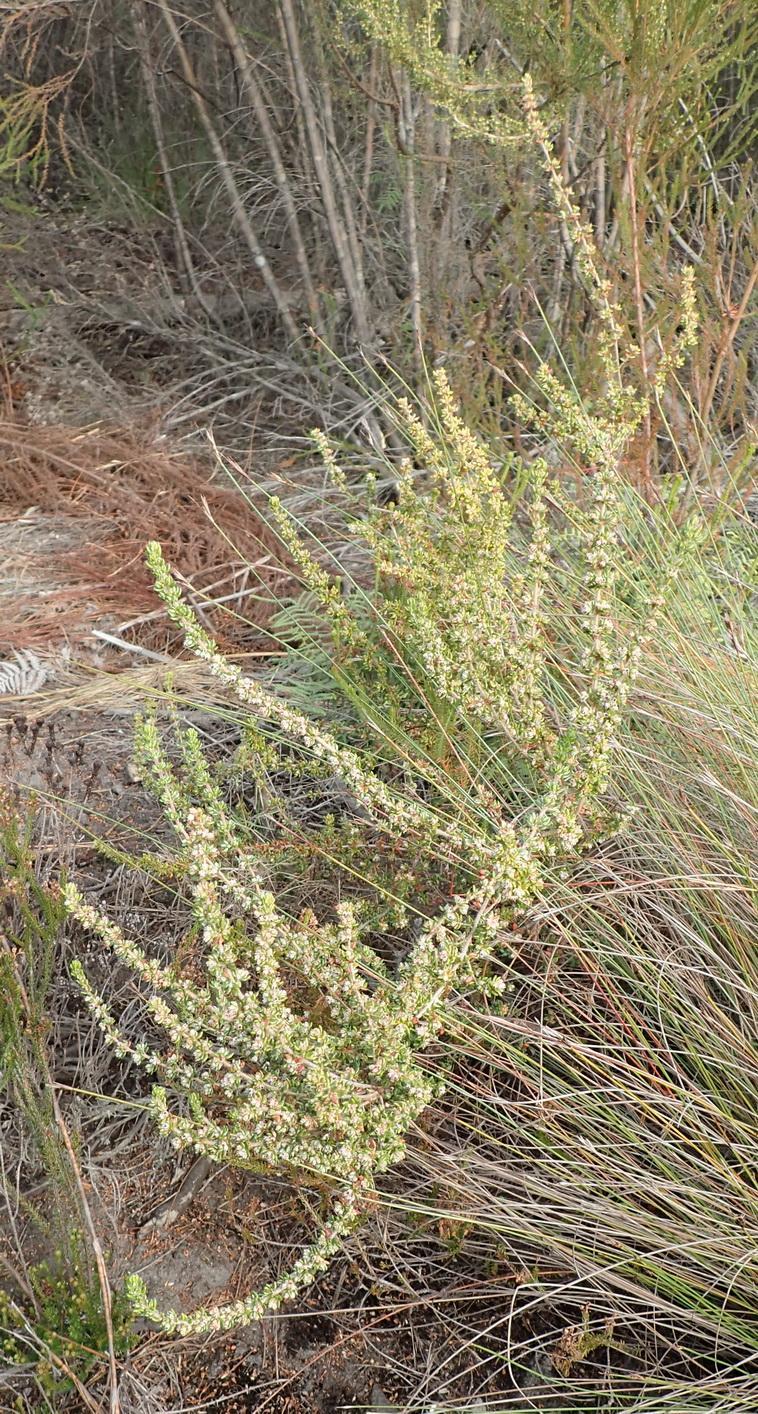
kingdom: Plantae
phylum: Tracheophyta
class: Magnoliopsida
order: Ericales
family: Ericaceae
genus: Erica
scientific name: Erica cordata
